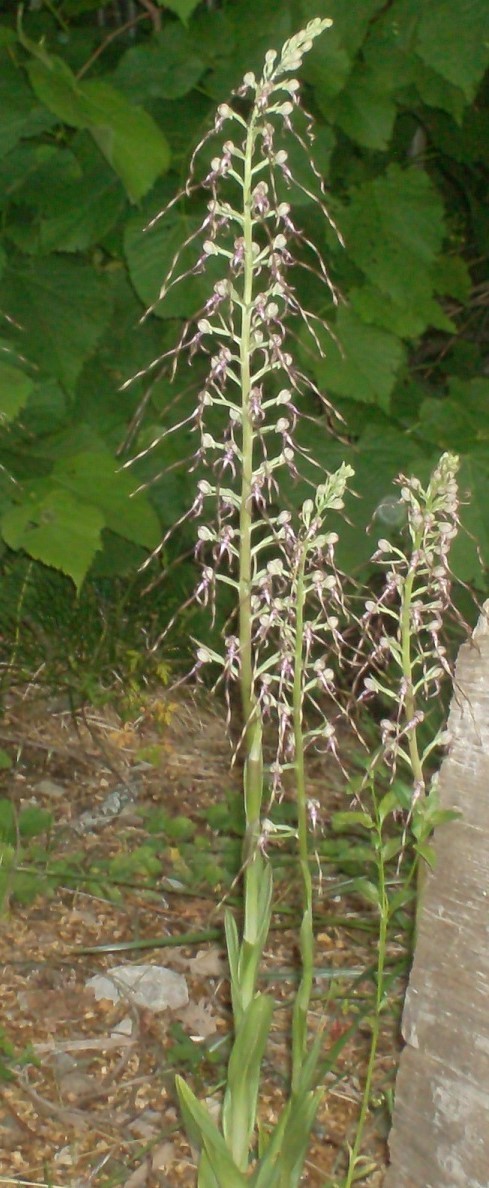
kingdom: Plantae
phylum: Tracheophyta
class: Liliopsida
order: Asparagales
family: Orchidaceae
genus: Himantoglossum
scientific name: Himantoglossum adriaticum
